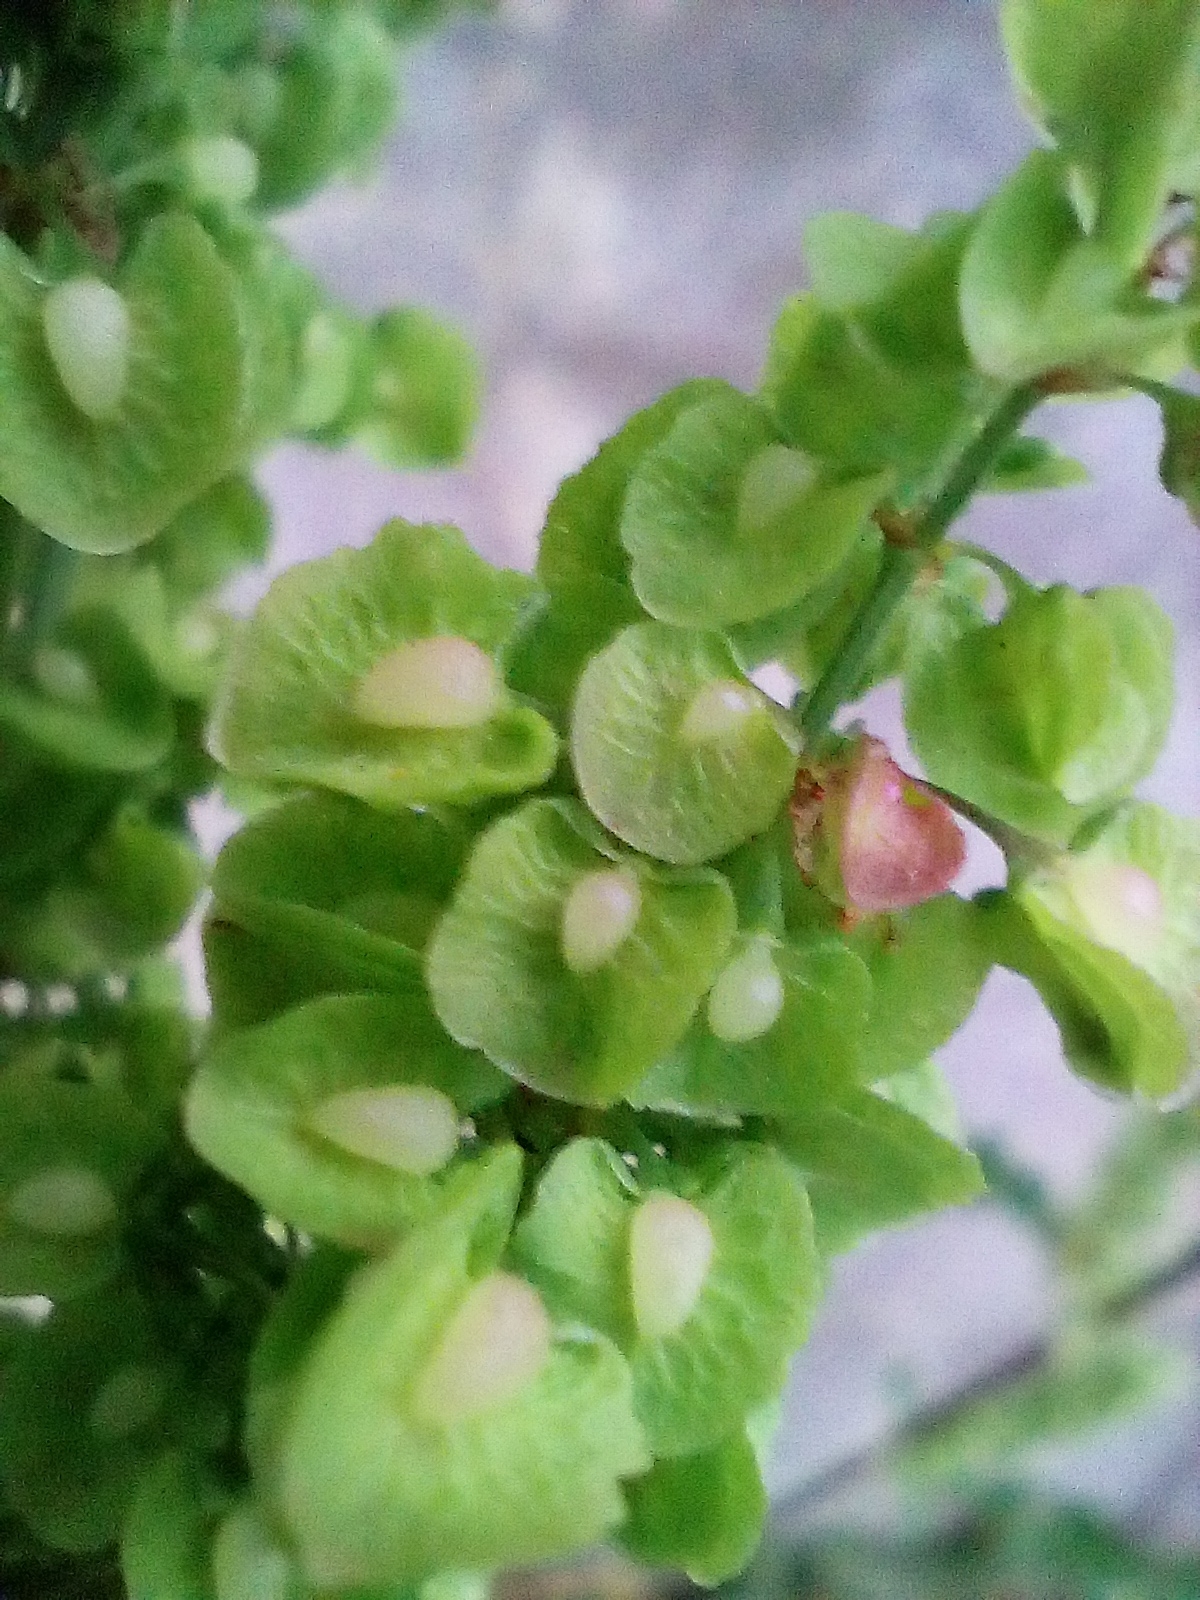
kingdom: Plantae
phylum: Tracheophyta
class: Magnoliopsida
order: Caryophyllales
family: Polygonaceae
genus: Rumex
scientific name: Rumex crispus
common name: Curled dock
